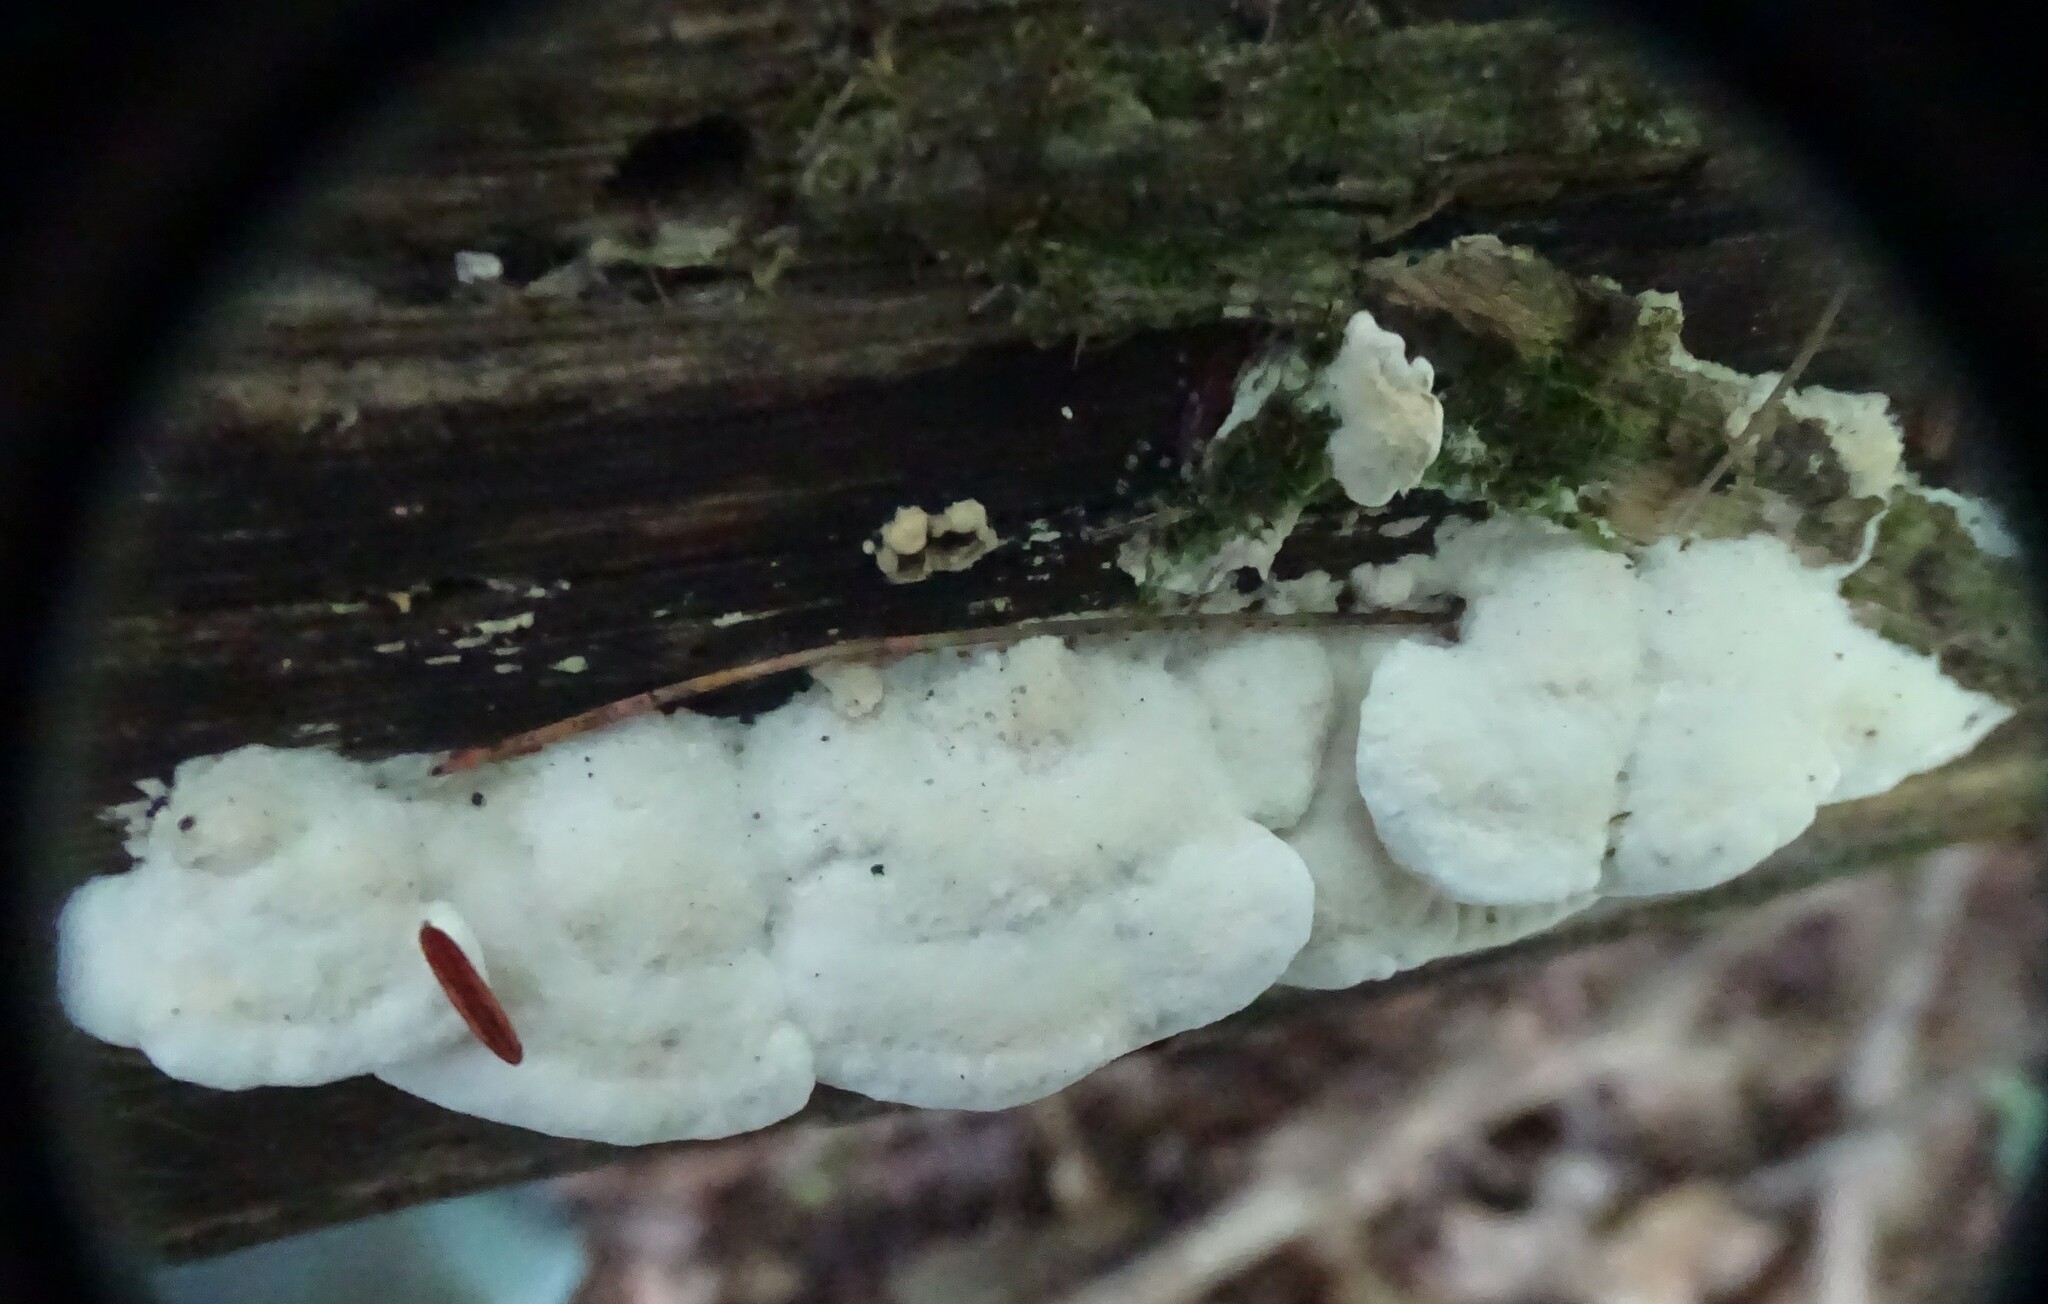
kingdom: Fungi
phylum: Basidiomycota
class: Agaricomycetes
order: Polyporales
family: Irpicaceae
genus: Vitreoporus
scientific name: Vitreoporus dichrous
